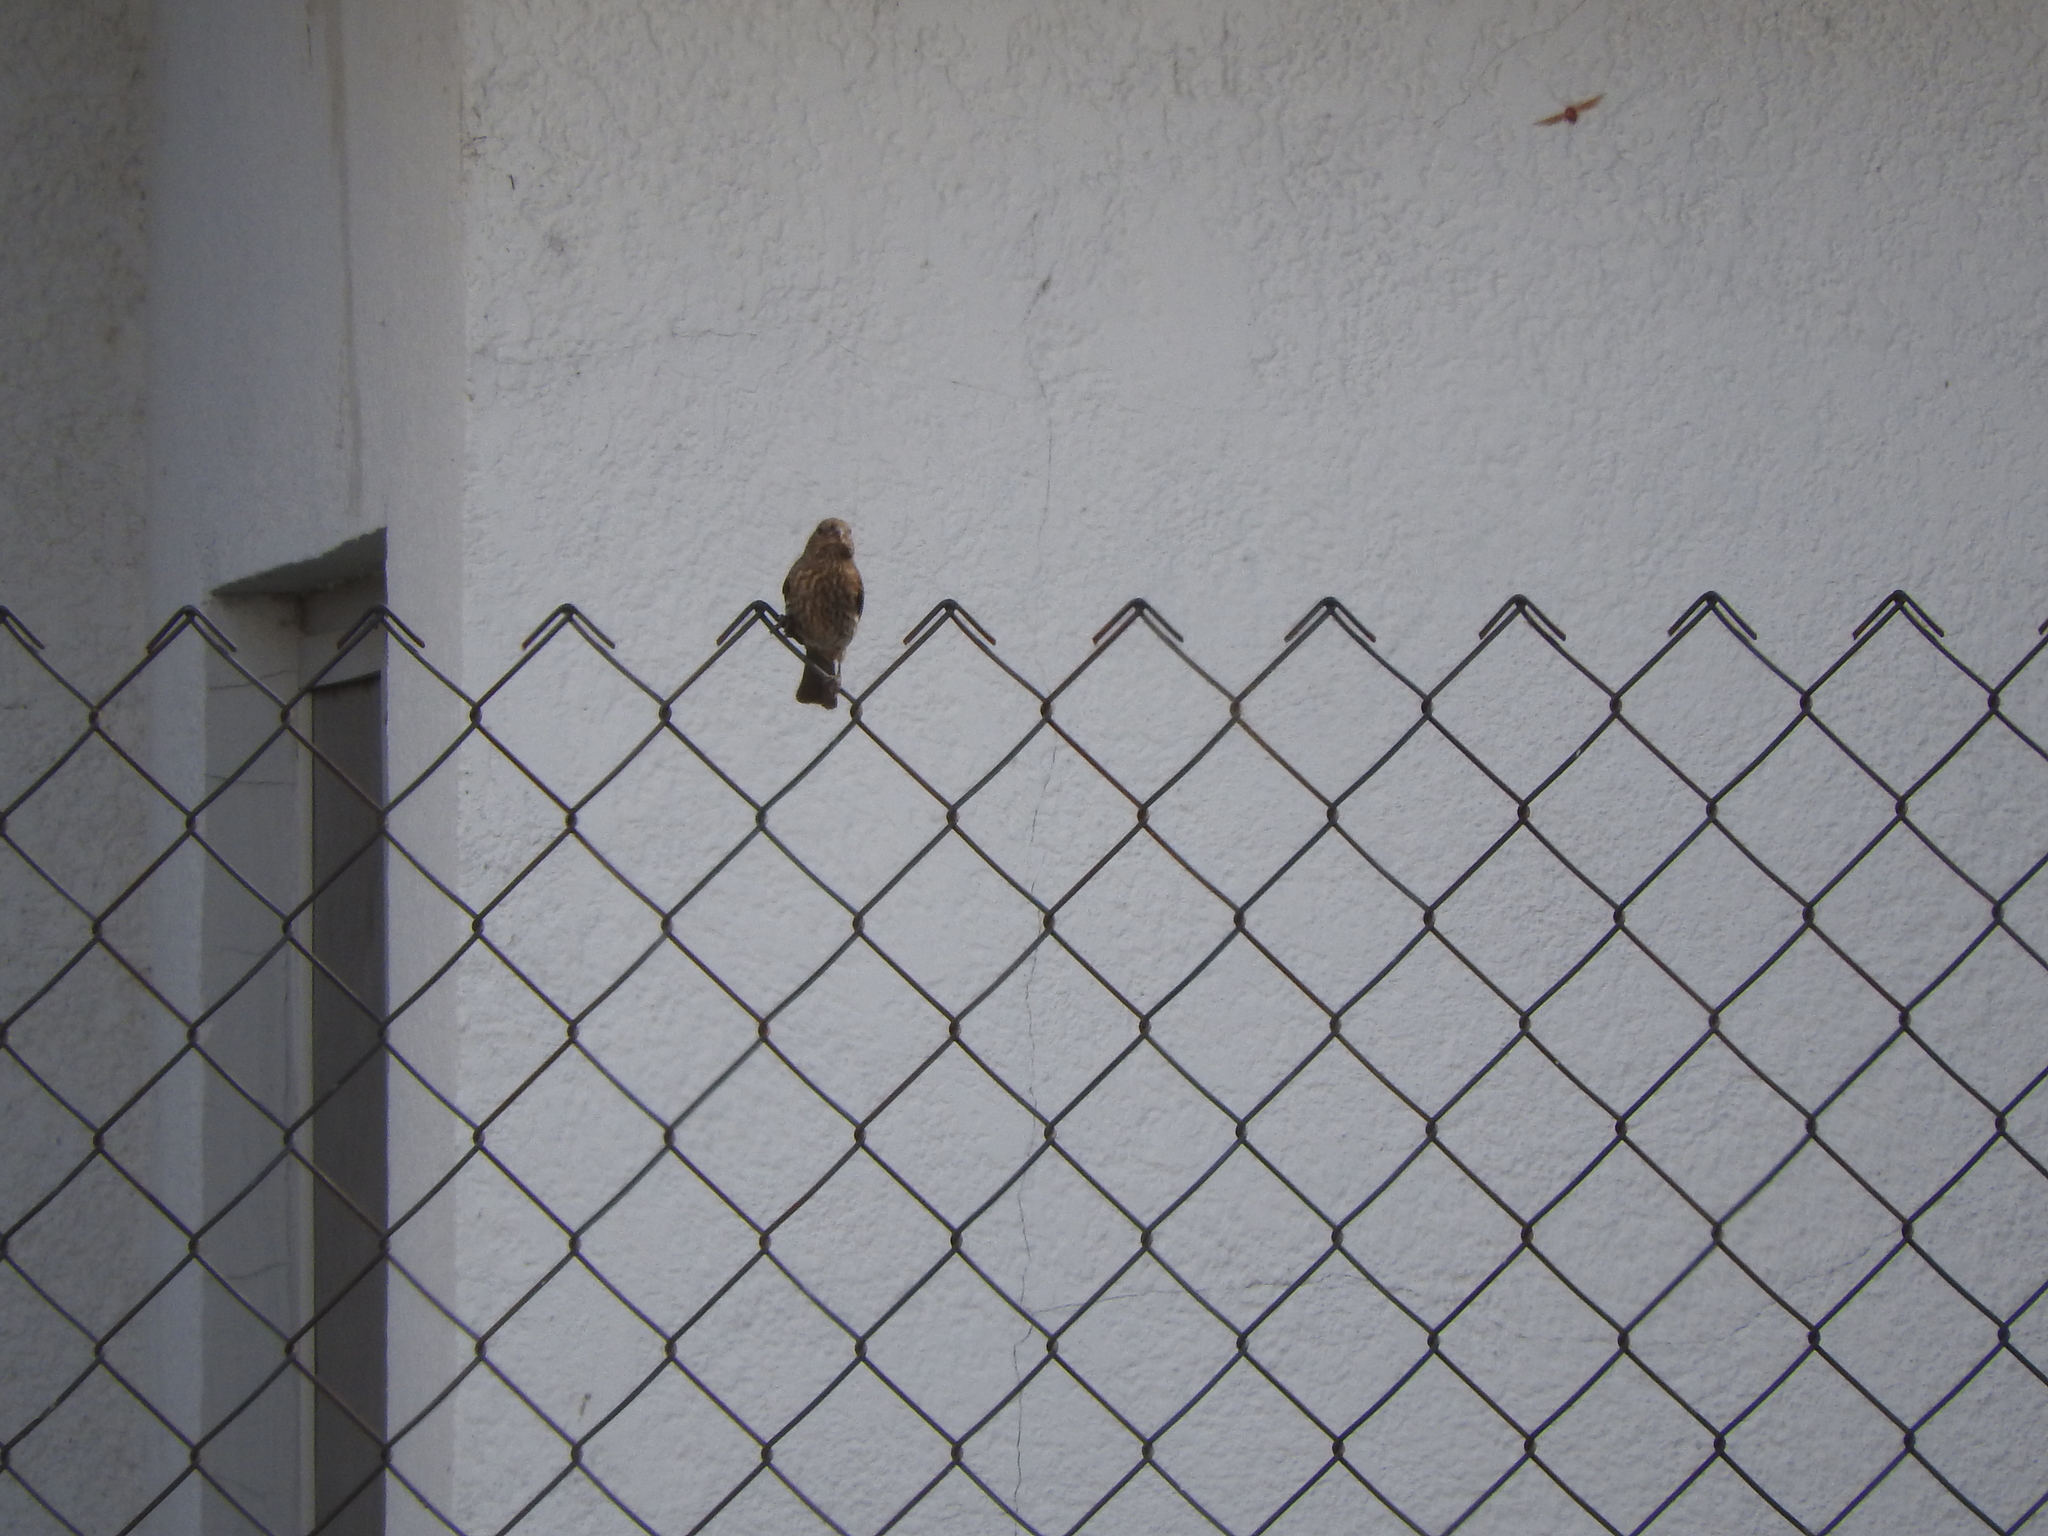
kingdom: Animalia
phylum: Chordata
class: Aves
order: Passeriformes
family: Fringillidae
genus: Haemorhous
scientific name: Haemorhous mexicanus
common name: House finch
